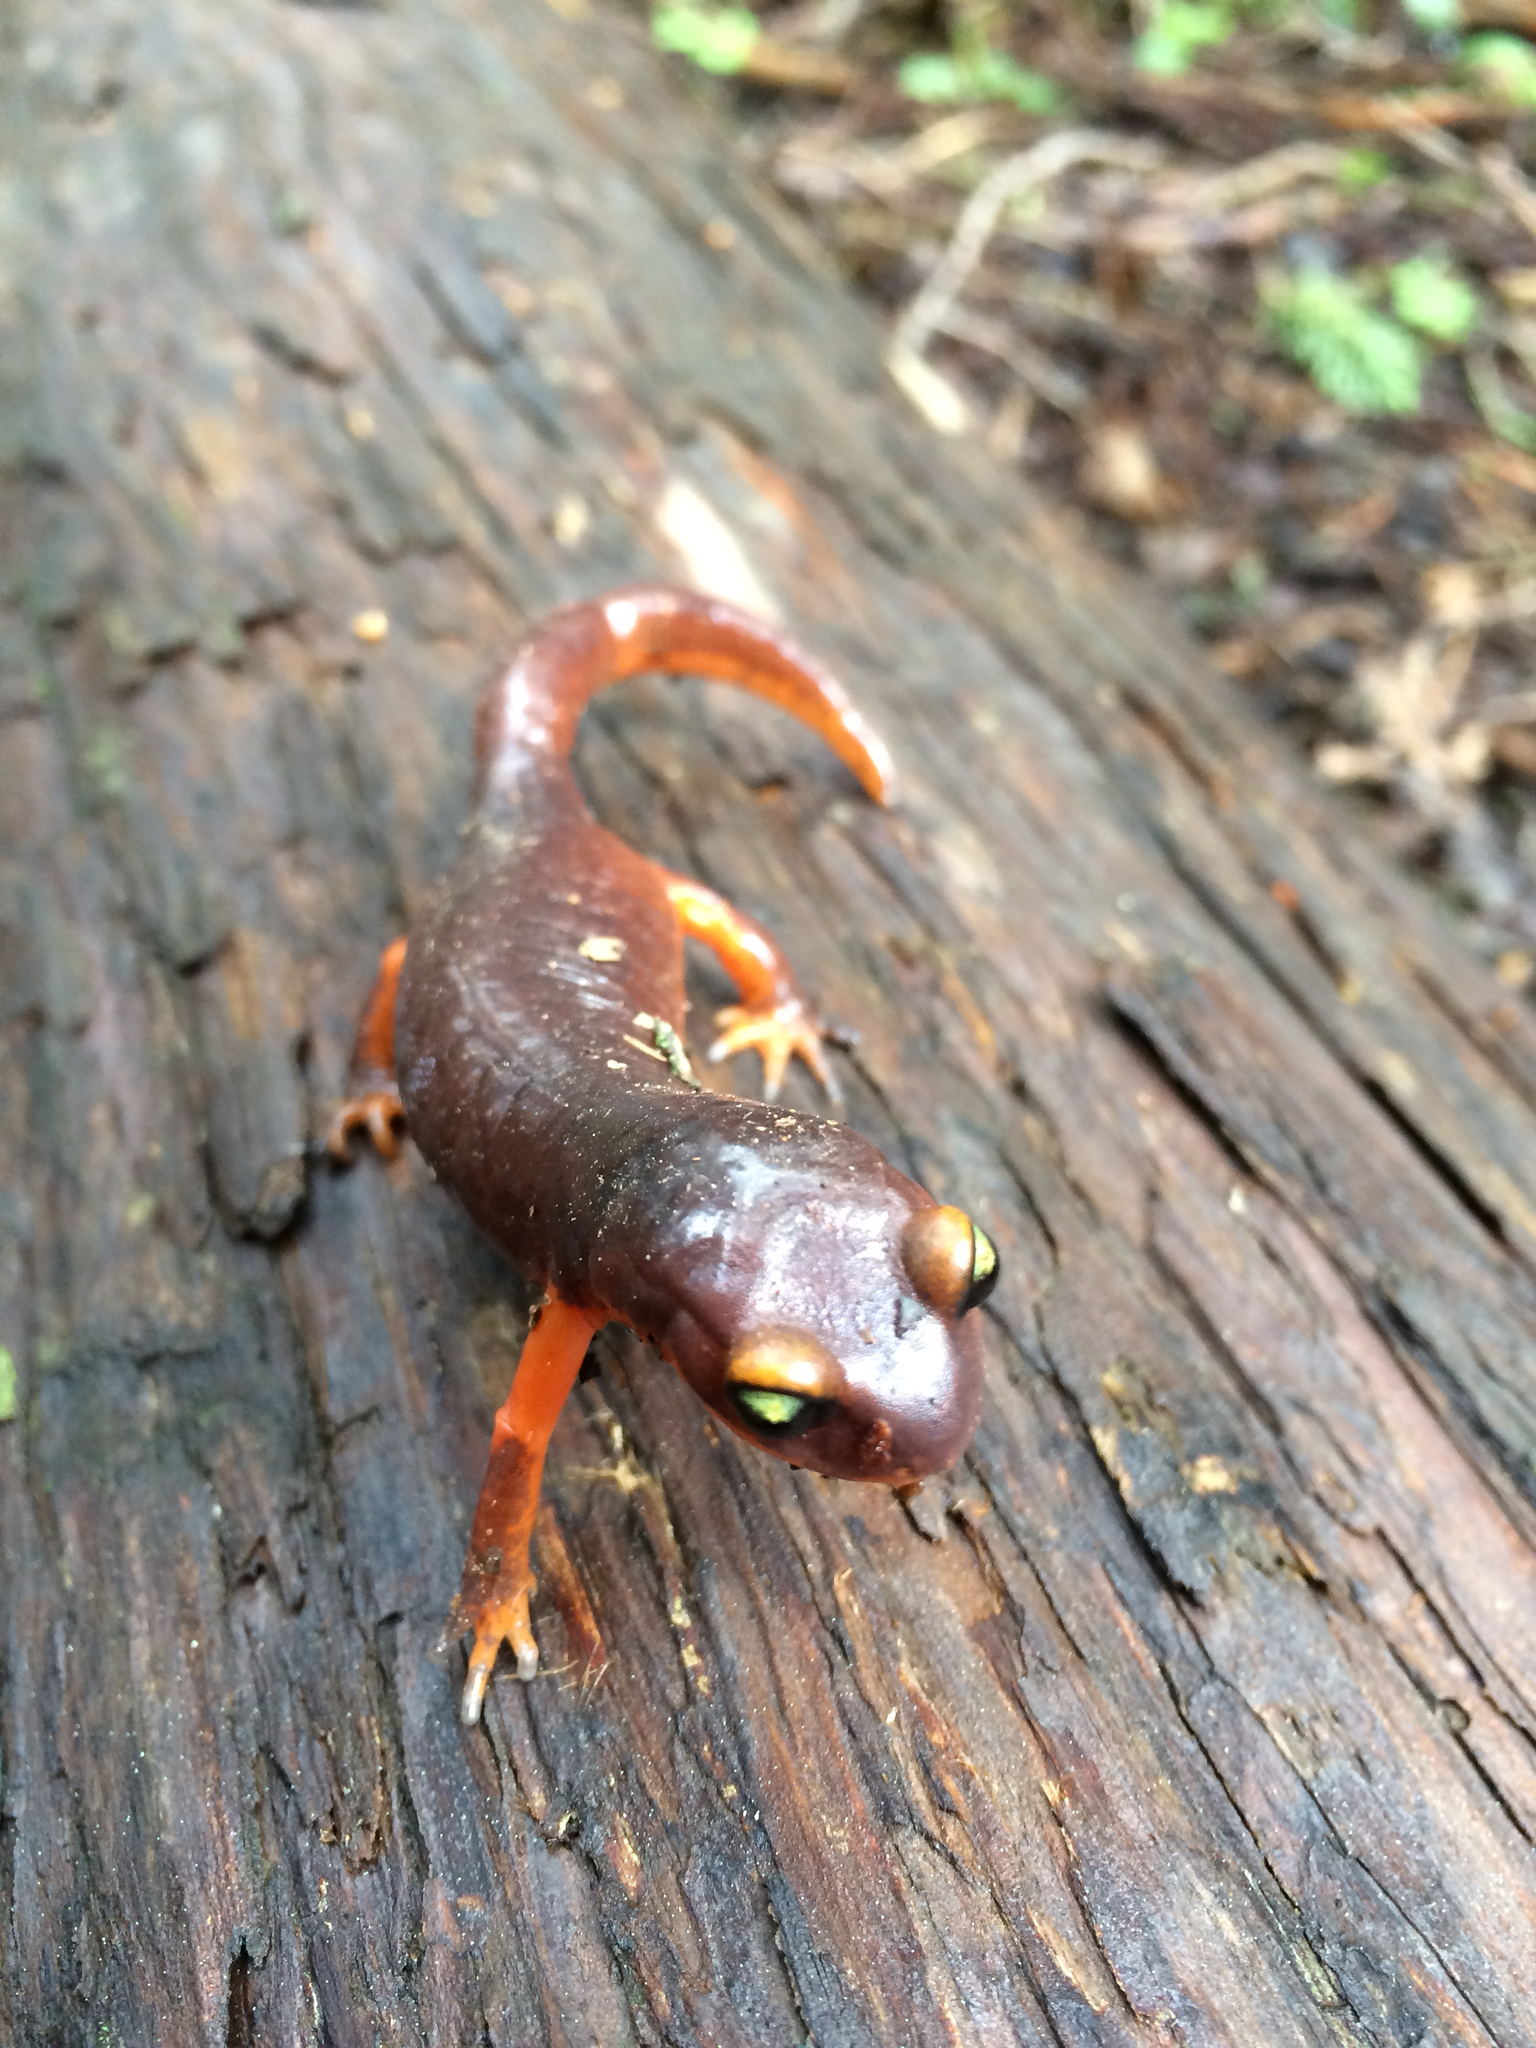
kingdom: Animalia
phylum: Chordata
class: Amphibia
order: Caudata
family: Plethodontidae
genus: Ensatina
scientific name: Ensatina eschscholtzii
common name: Ensatina
